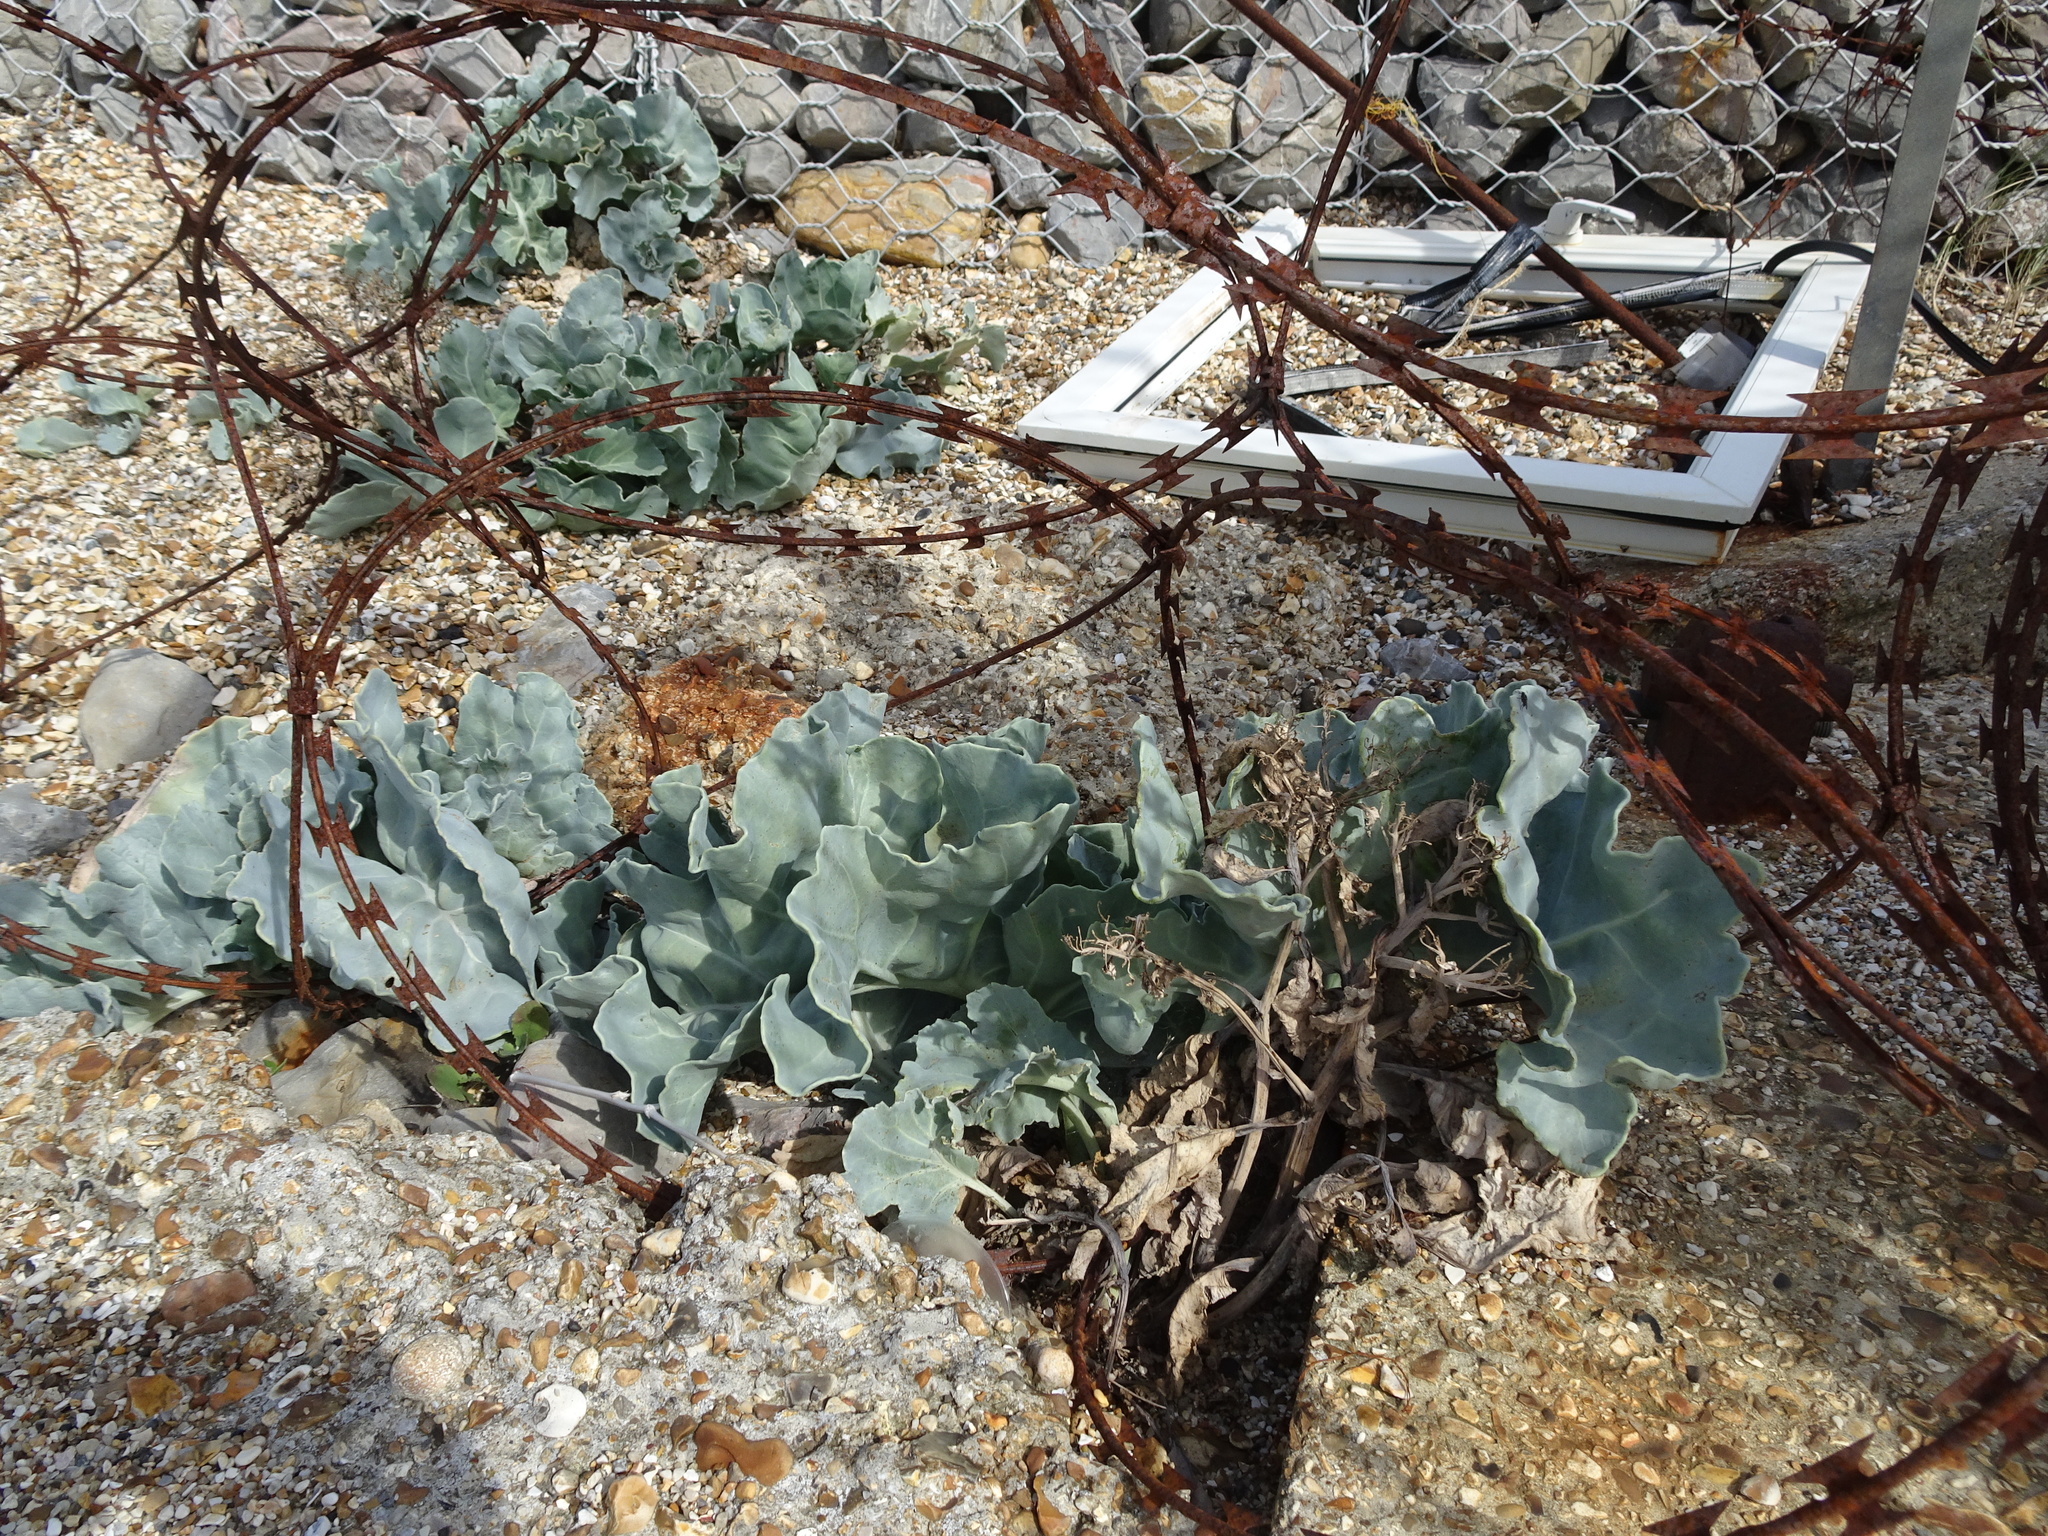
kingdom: Plantae
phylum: Tracheophyta
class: Magnoliopsida
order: Brassicales
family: Brassicaceae
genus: Crambe
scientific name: Crambe maritima
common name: Sea-kale
